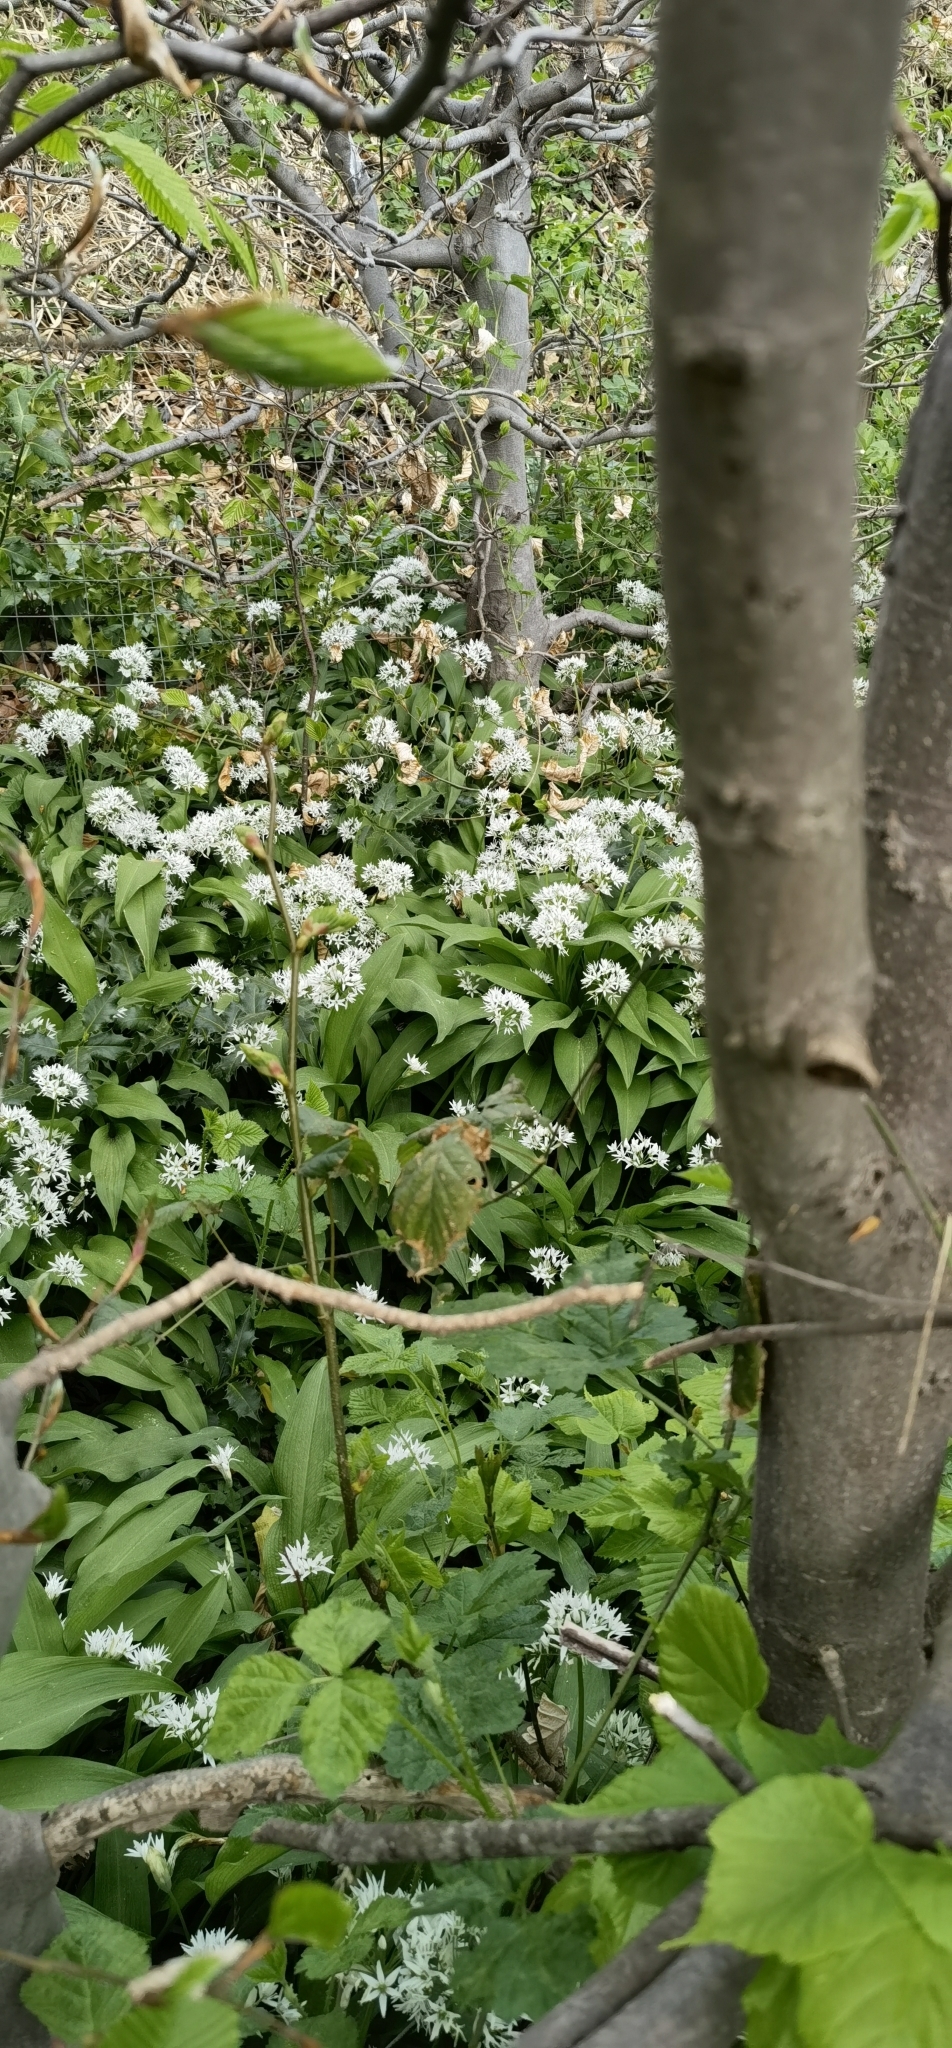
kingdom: Plantae
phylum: Tracheophyta
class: Liliopsida
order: Asparagales
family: Amaryllidaceae
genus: Allium
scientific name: Allium ursinum
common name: Ramsons
